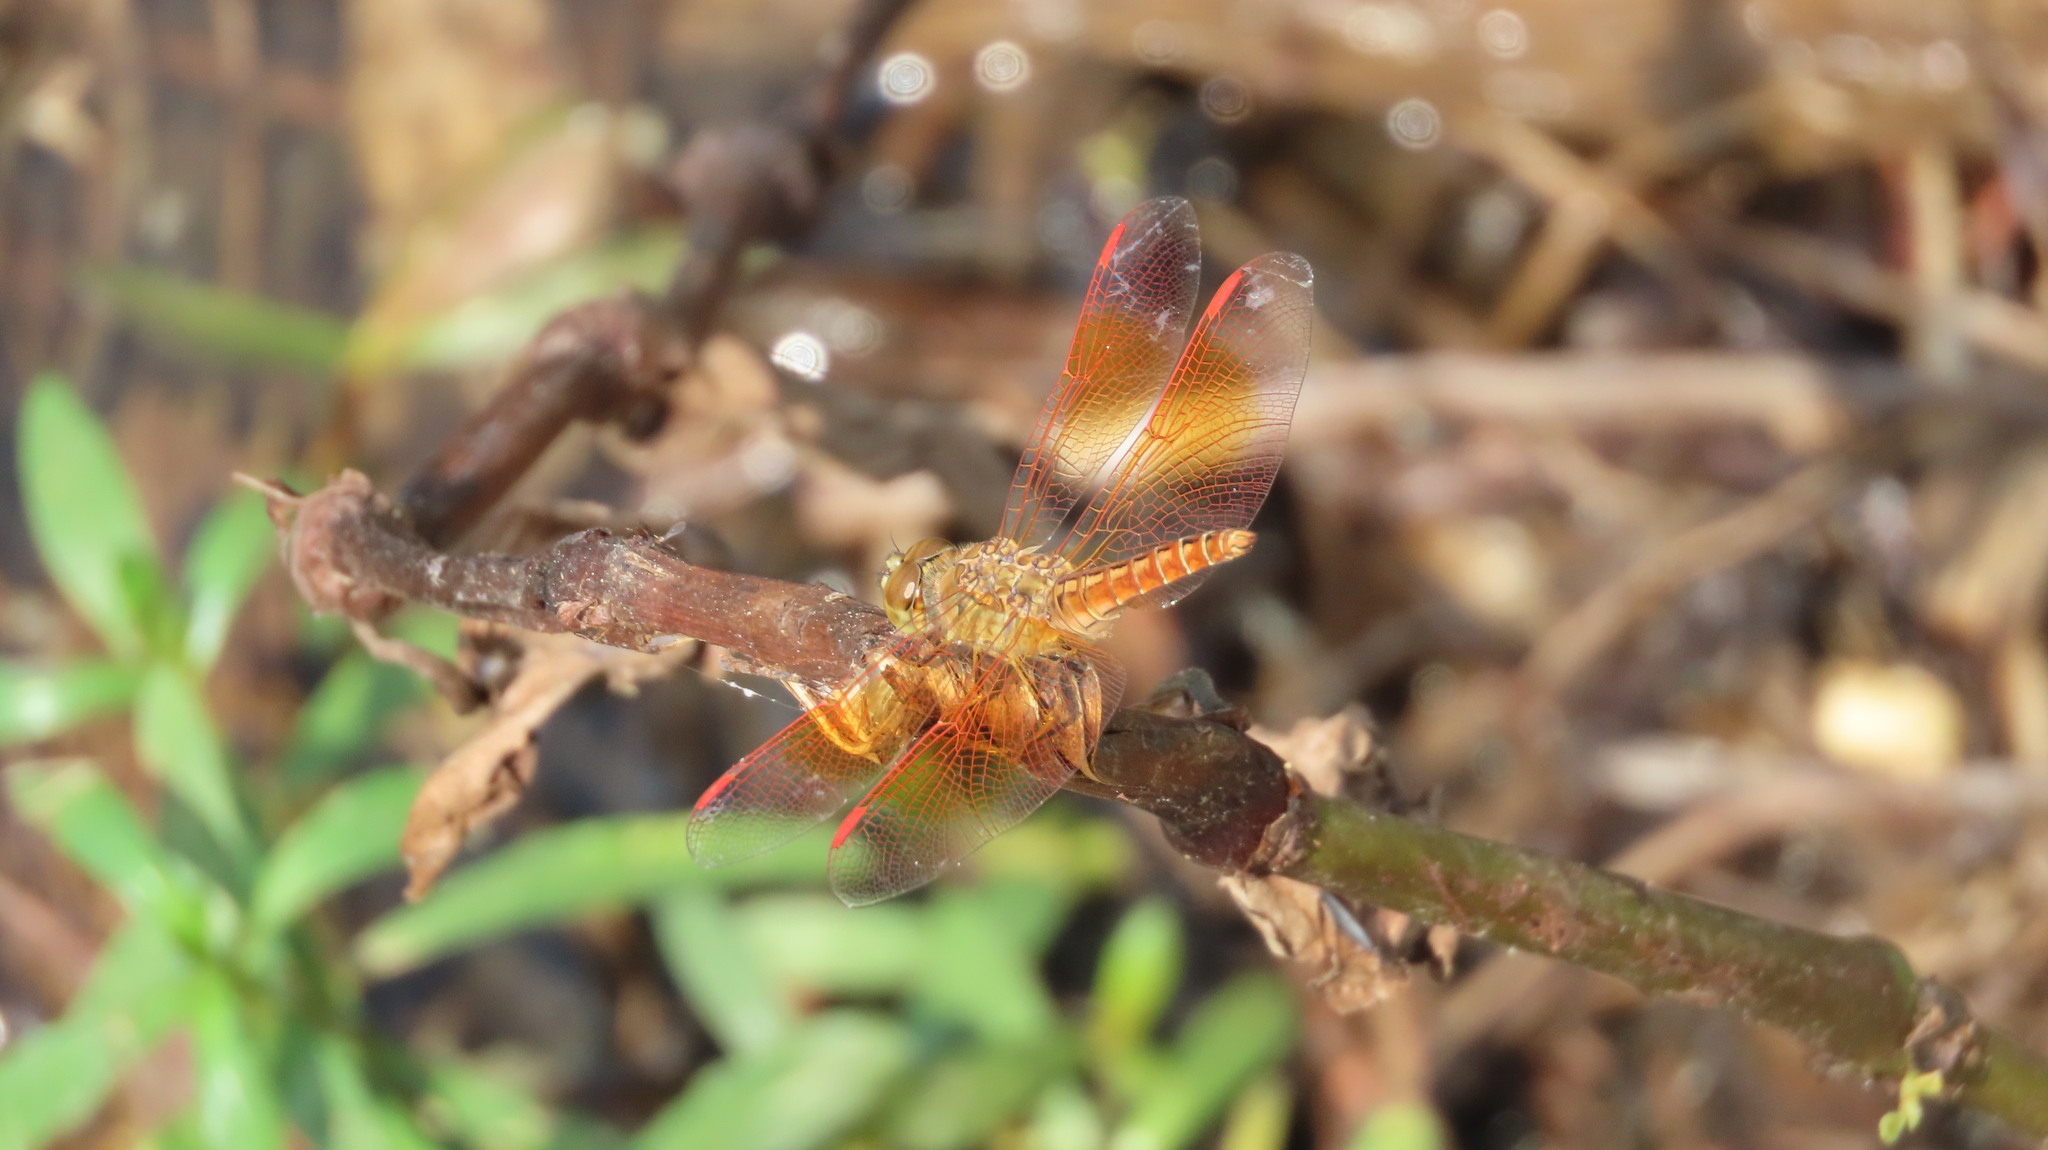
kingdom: Animalia
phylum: Arthropoda
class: Insecta
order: Odonata
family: Libellulidae
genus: Brachythemis
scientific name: Brachythemis contaminata
